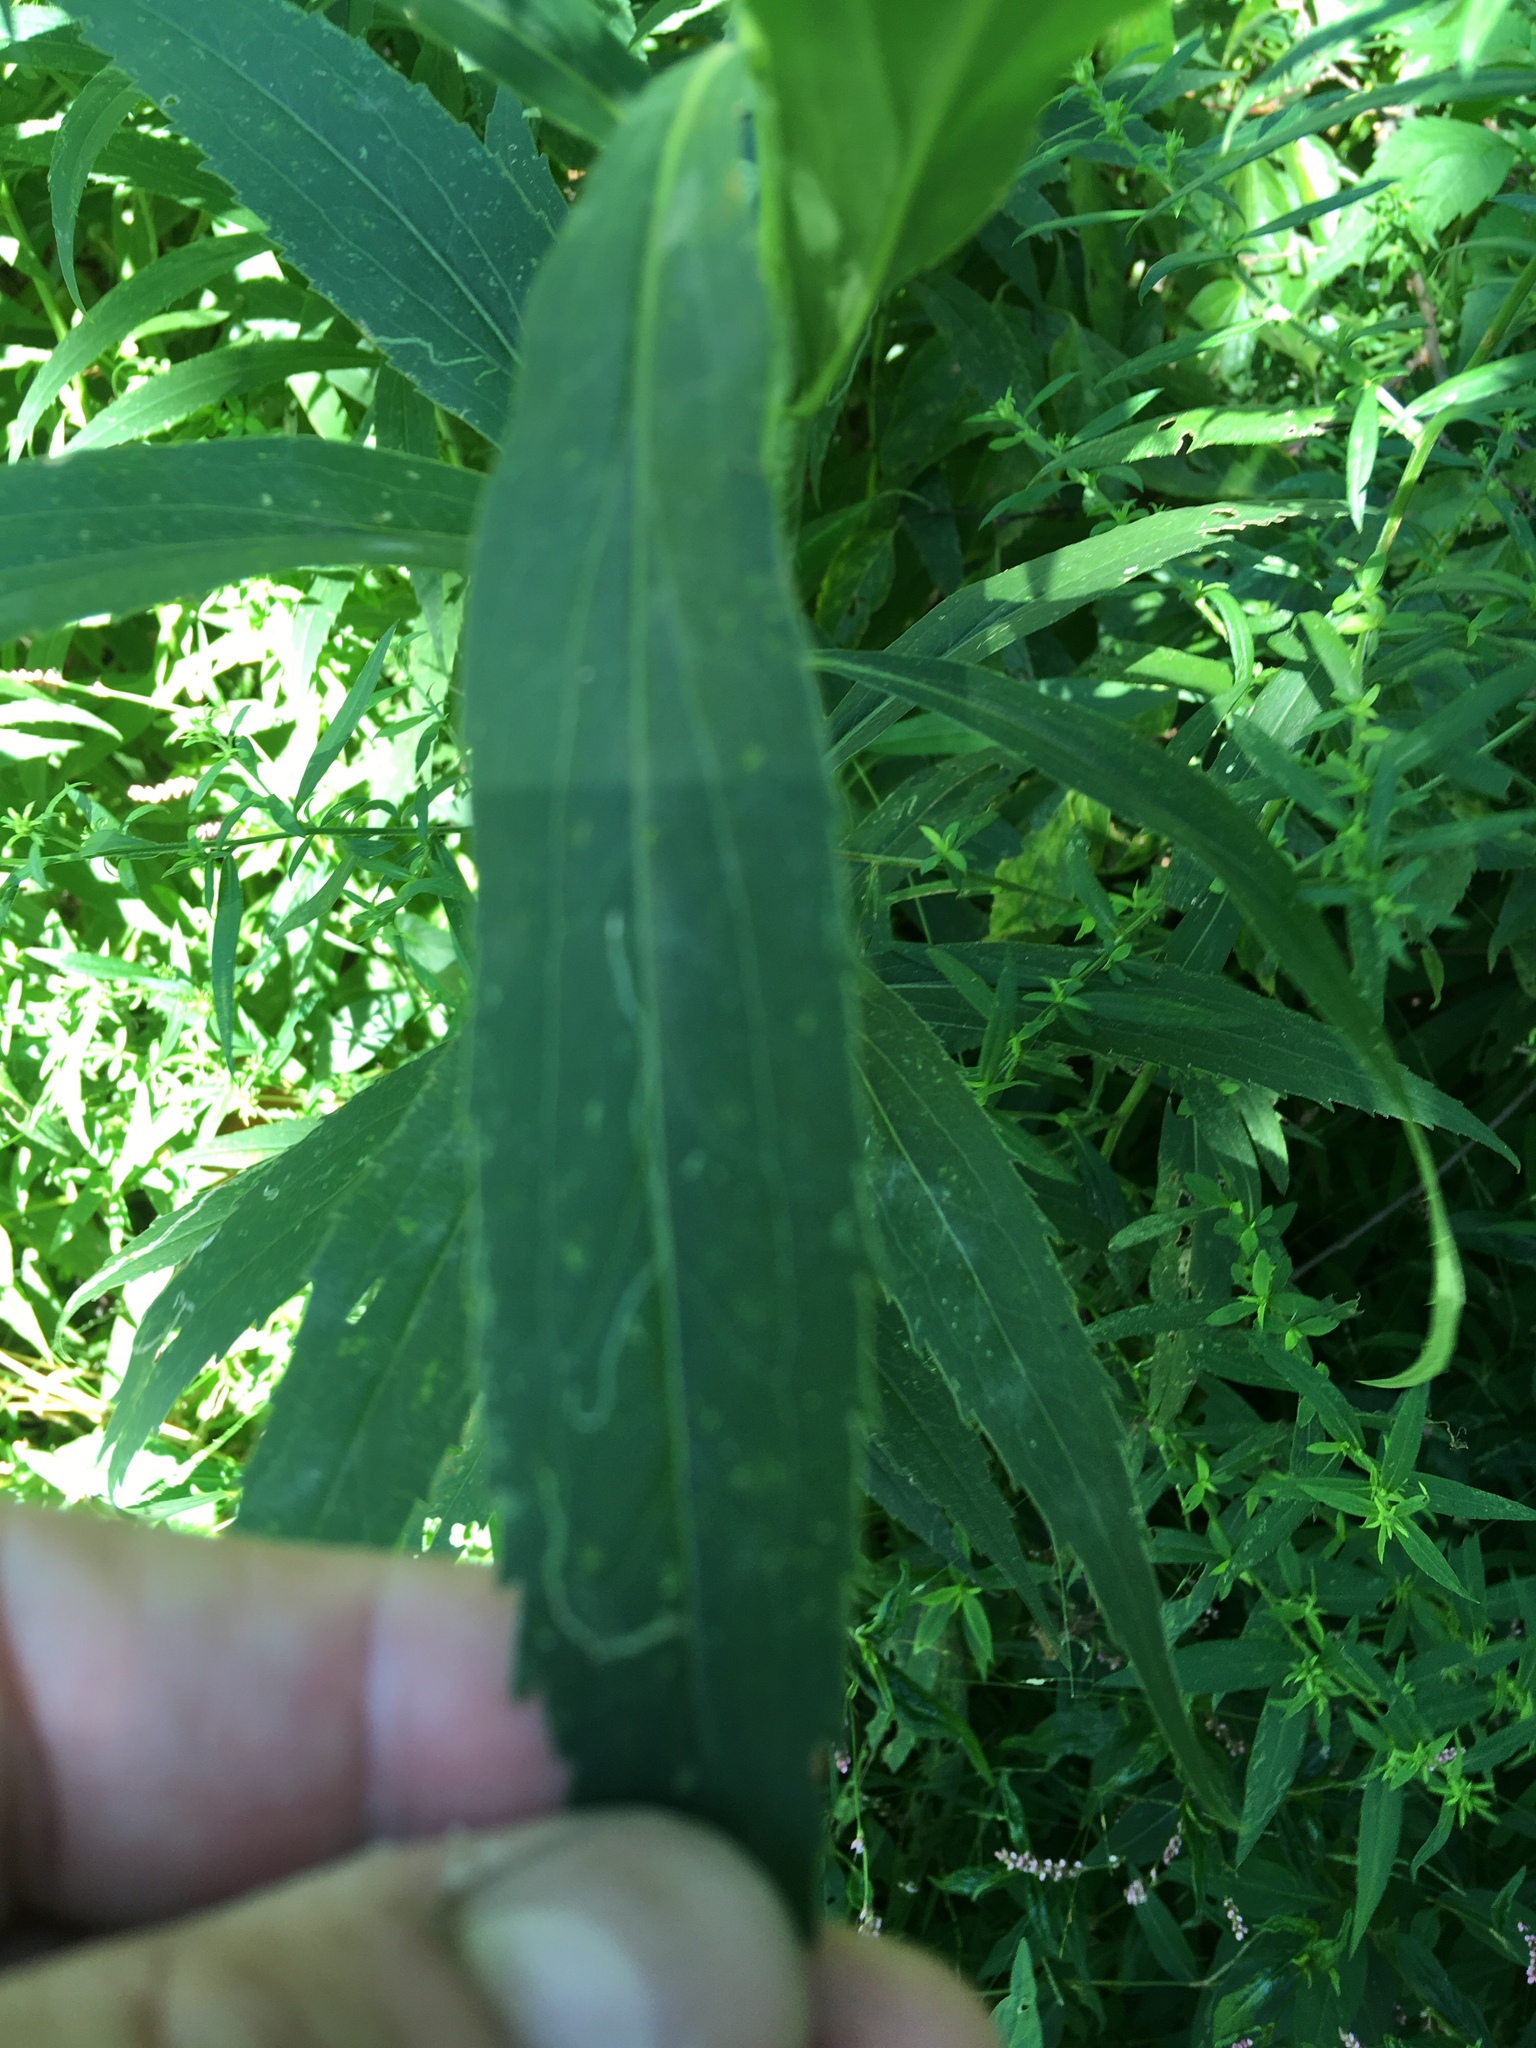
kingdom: Plantae
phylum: Tracheophyta
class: Magnoliopsida
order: Asterales
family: Asteraceae
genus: Solidago
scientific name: Solidago gigantea
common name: Giant goldenrod
